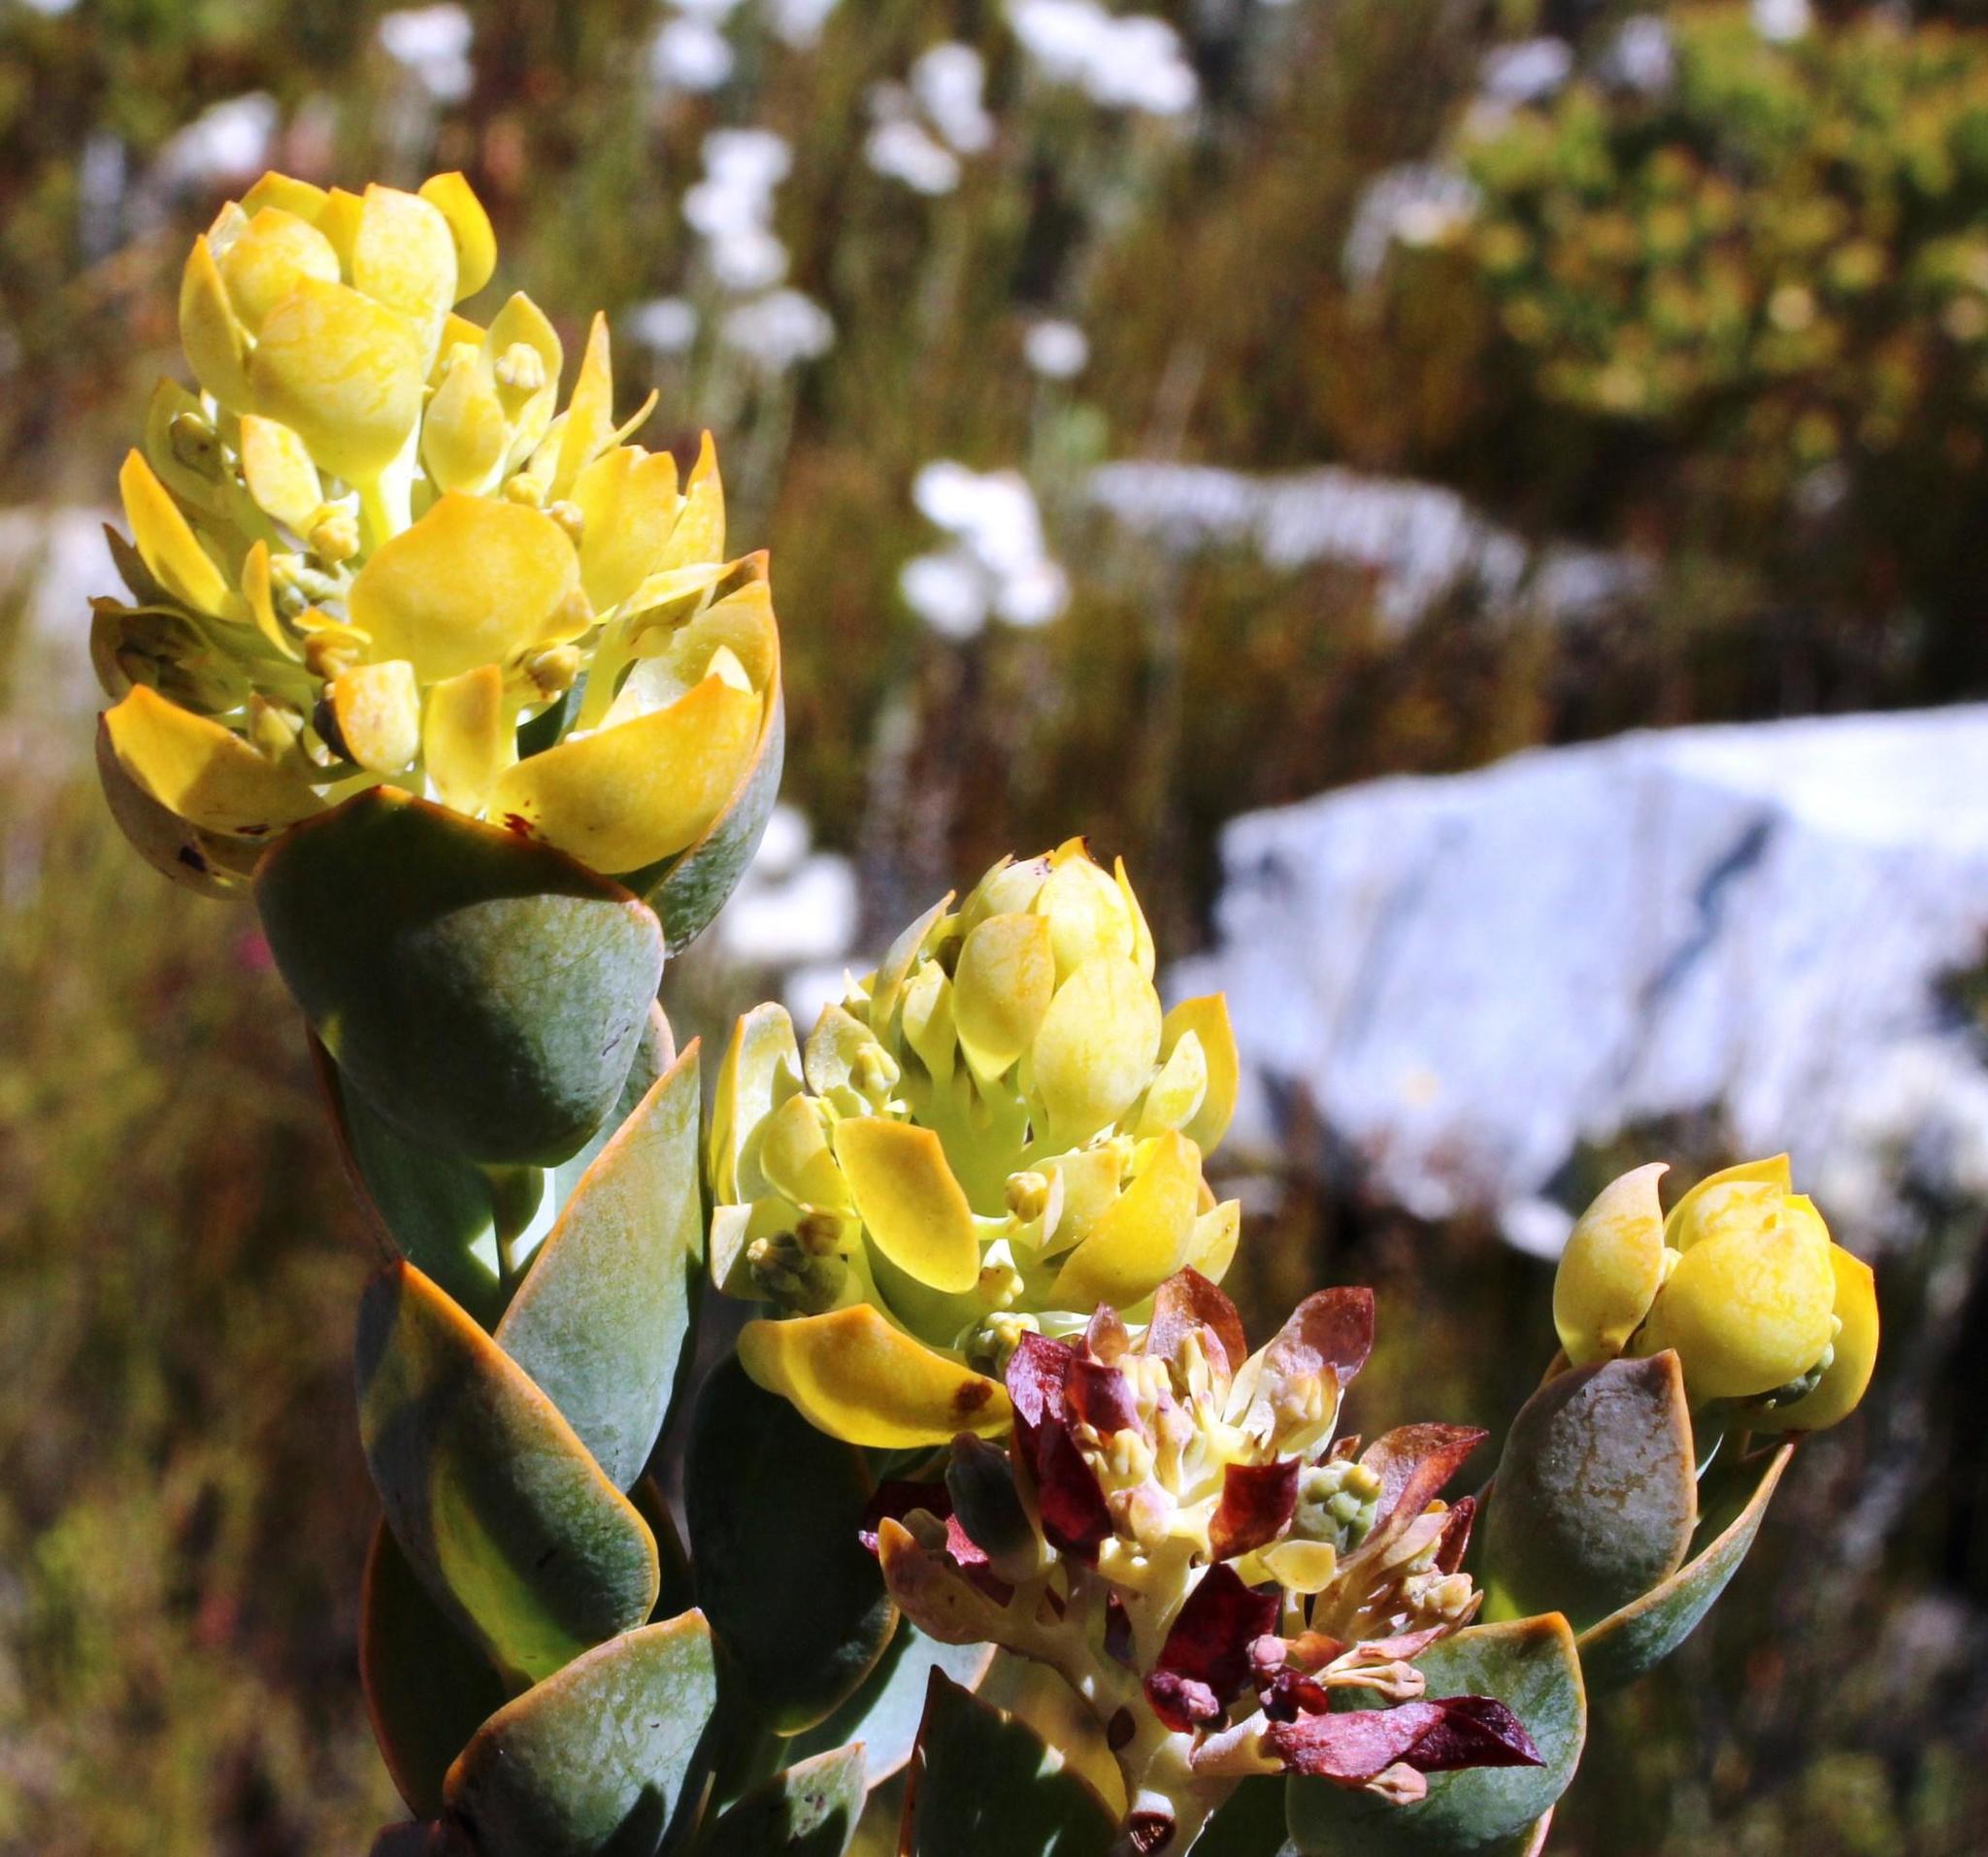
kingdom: Plantae
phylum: Tracheophyta
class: Magnoliopsida
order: Santalales
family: Thesiaceae
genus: Thesium
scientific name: Thesium euphorbioides
